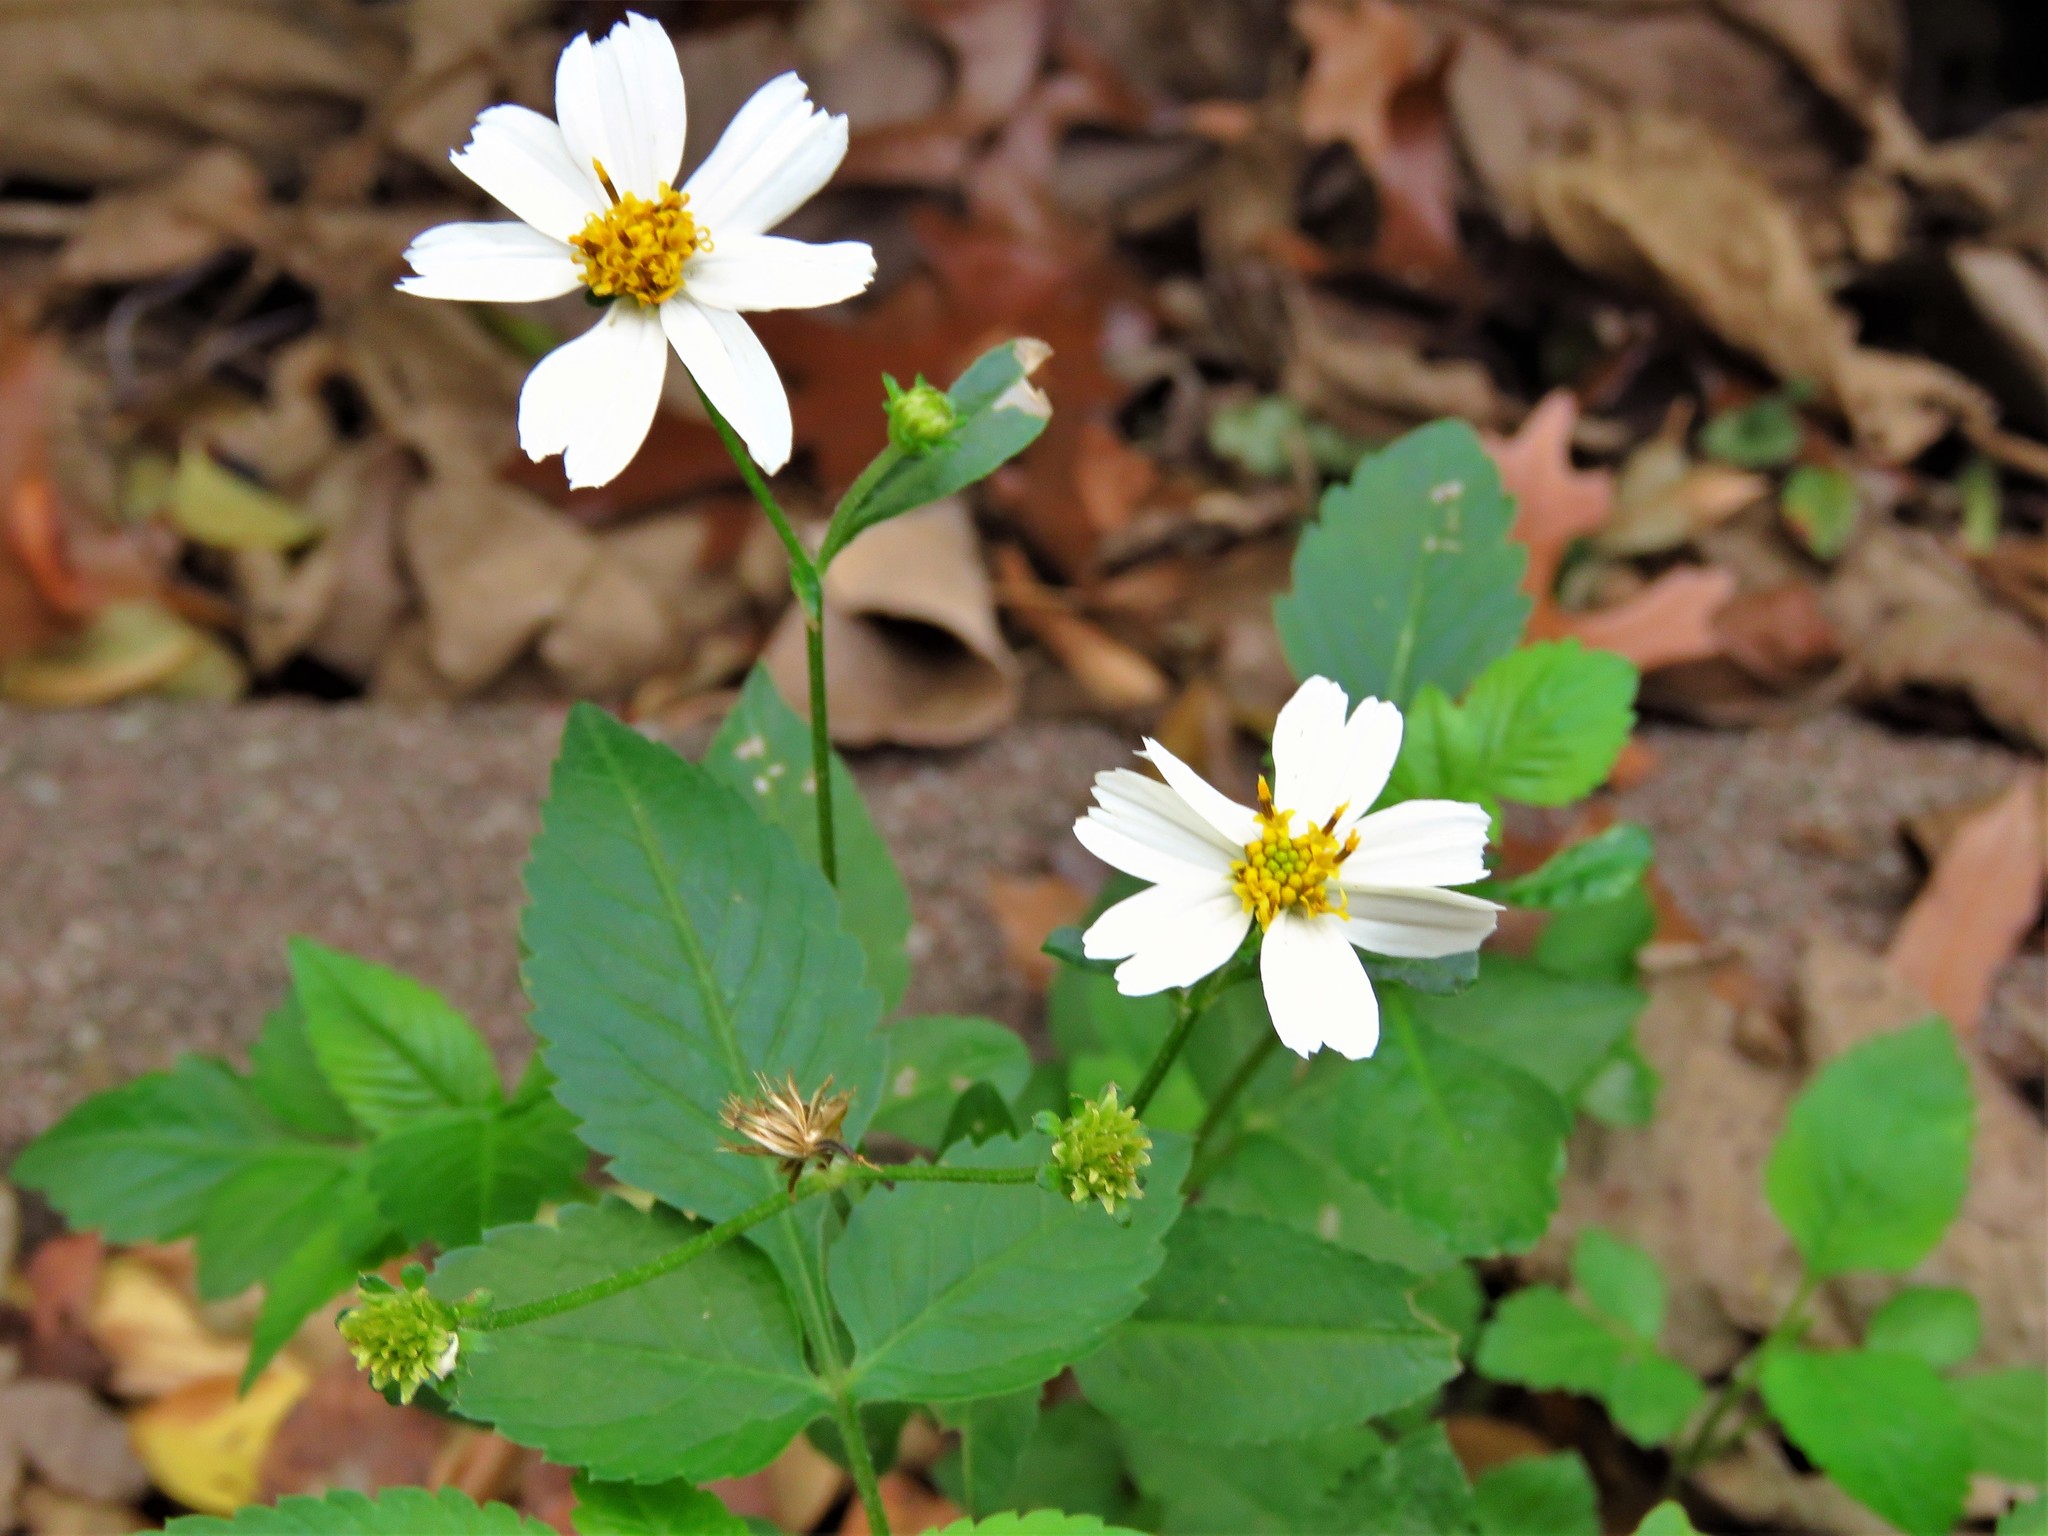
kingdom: Plantae
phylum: Tracheophyta
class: Magnoliopsida
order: Asterales
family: Asteraceae
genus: Bidens
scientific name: Bidens alba
